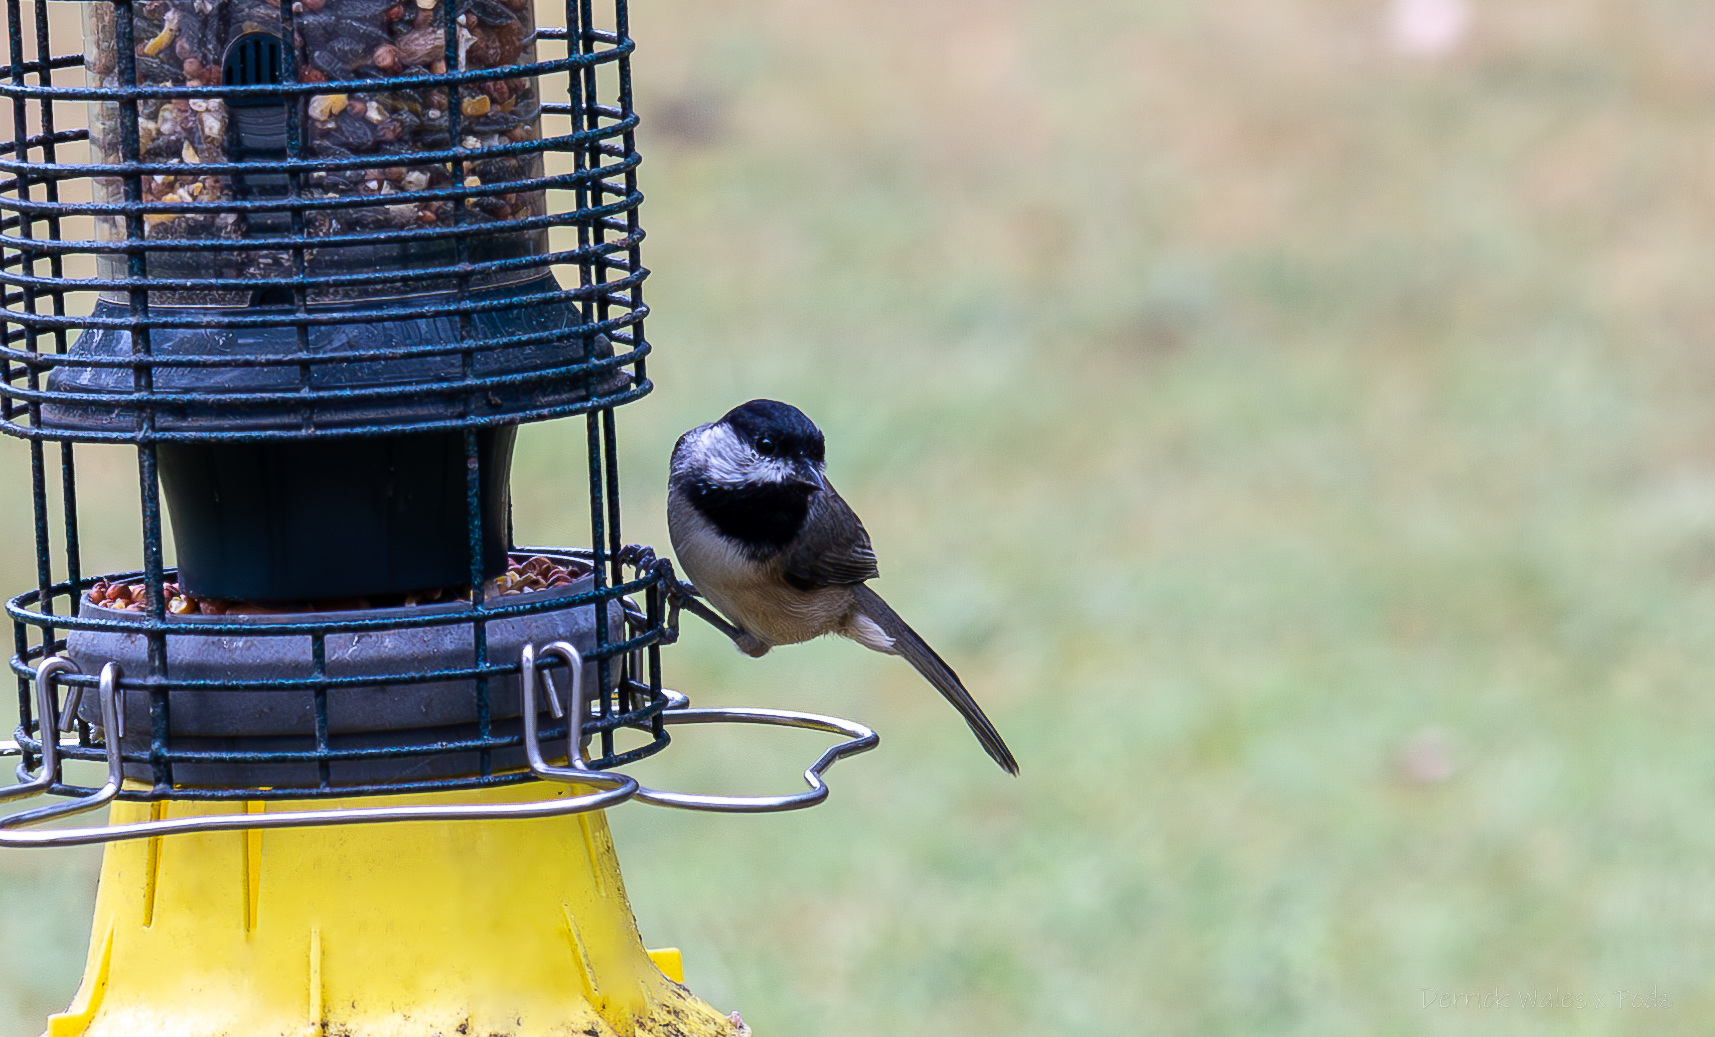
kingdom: Animalia
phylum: Chordata
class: Aves
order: Passeriformes
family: Paridae
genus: Poecile
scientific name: Poecile carolinensis
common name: Carolina chickadee
